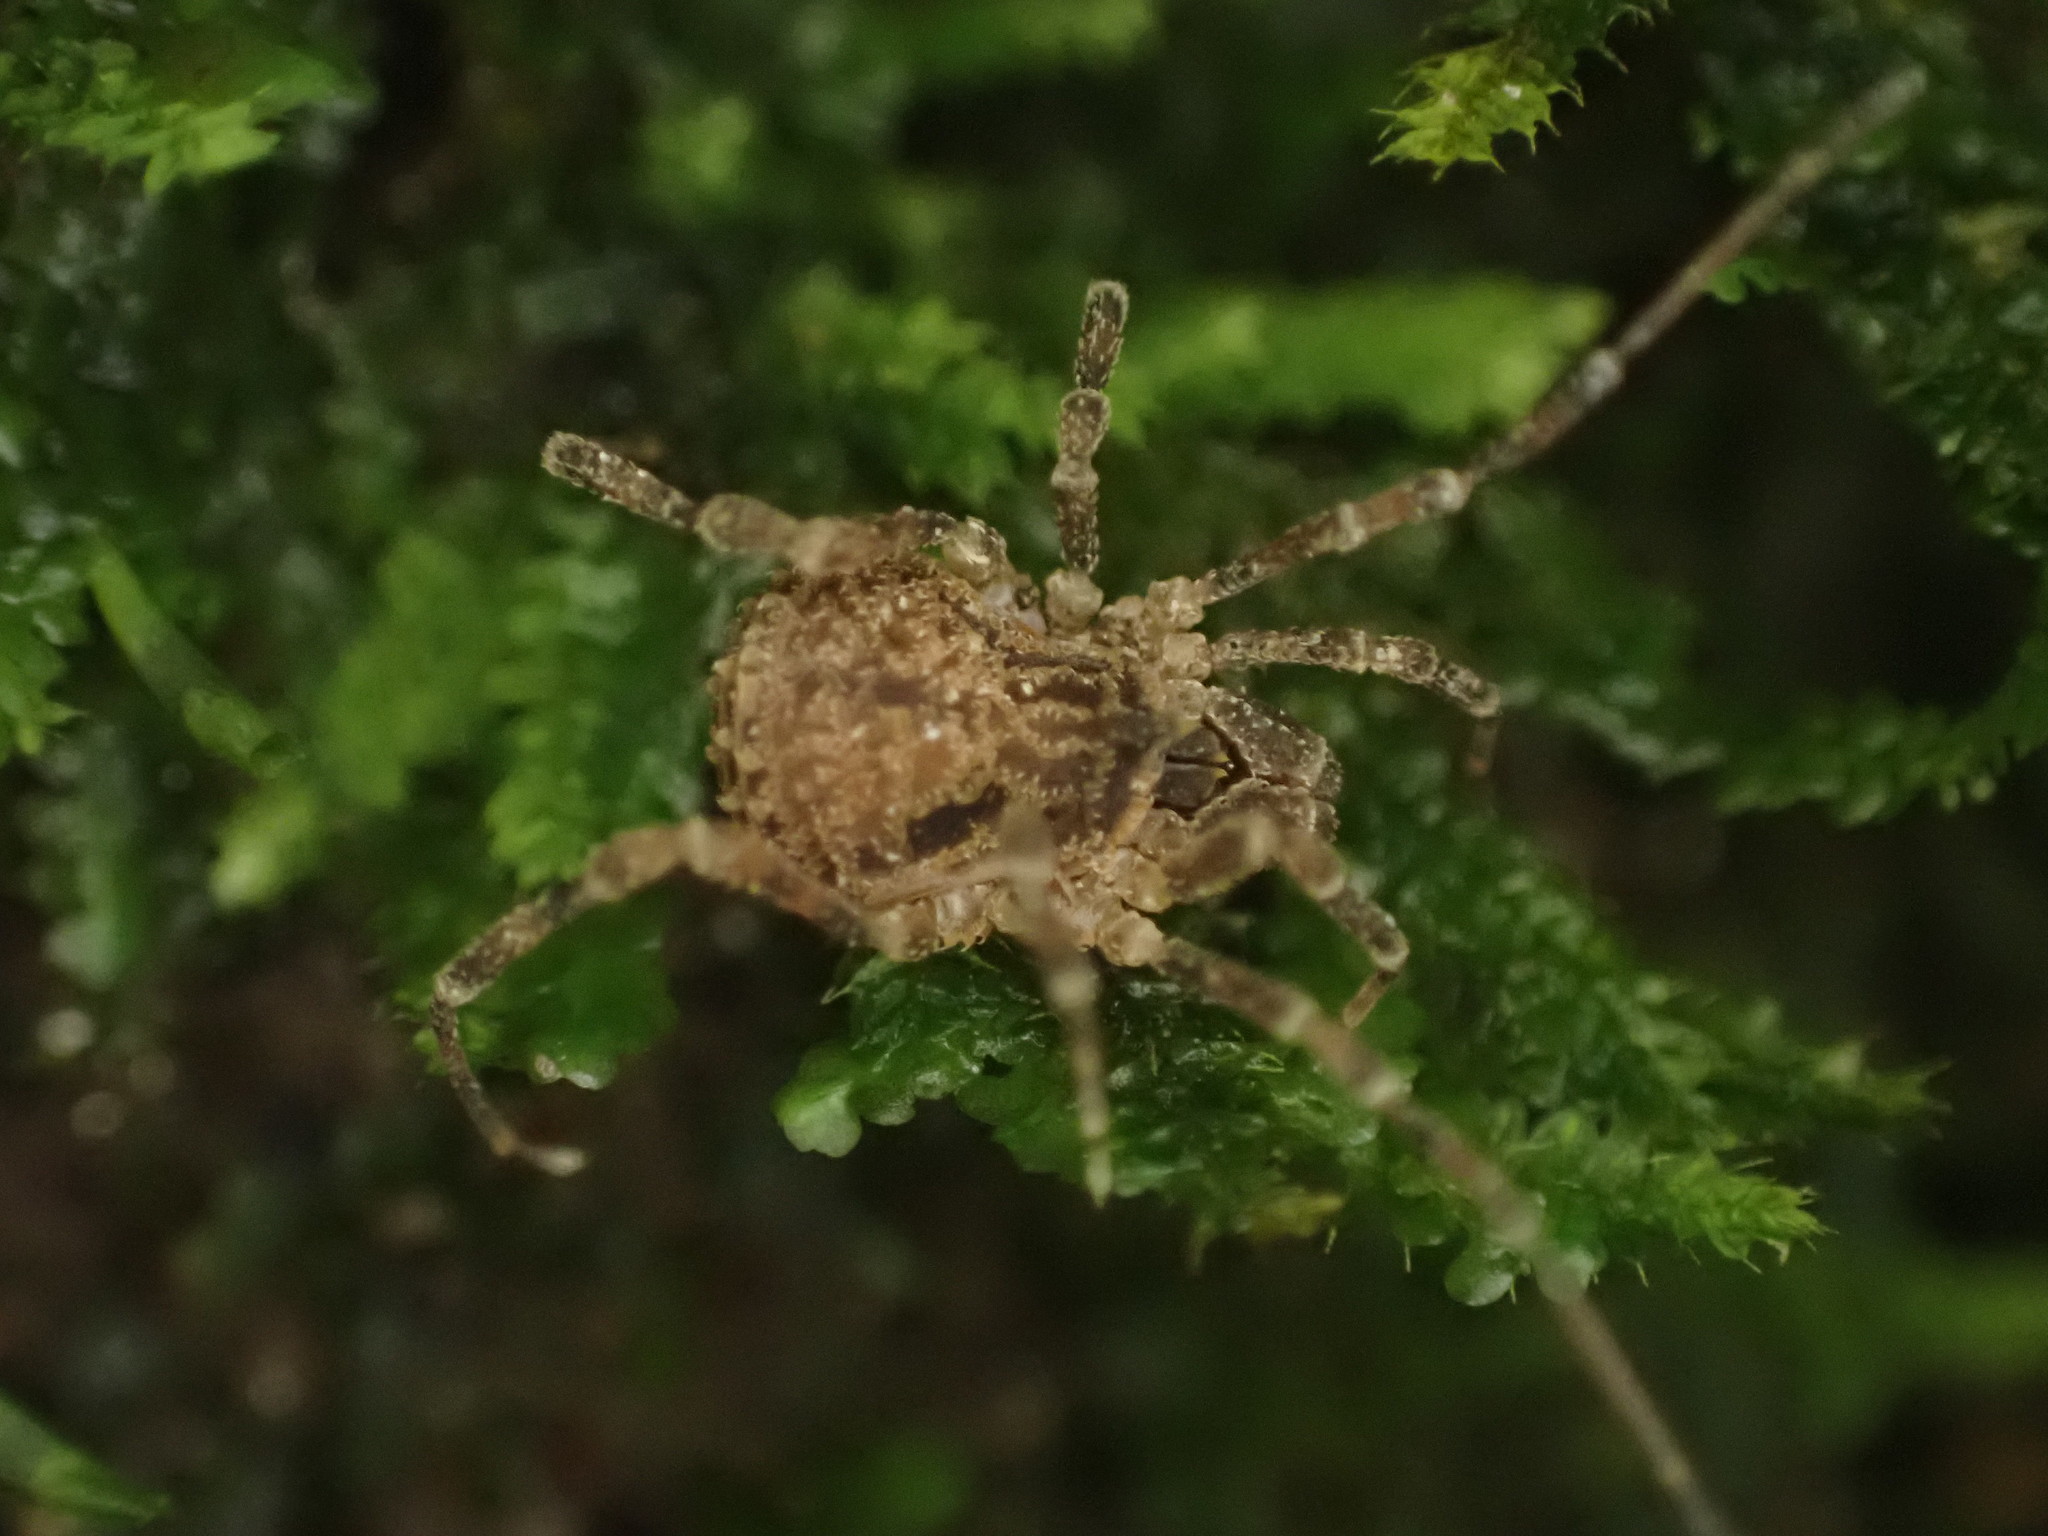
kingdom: Animalia
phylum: Arthropoda
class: Arachnida
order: Opiliones
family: Triaenonychidae
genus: Pristobunus
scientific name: Pristobunus henopoeus
